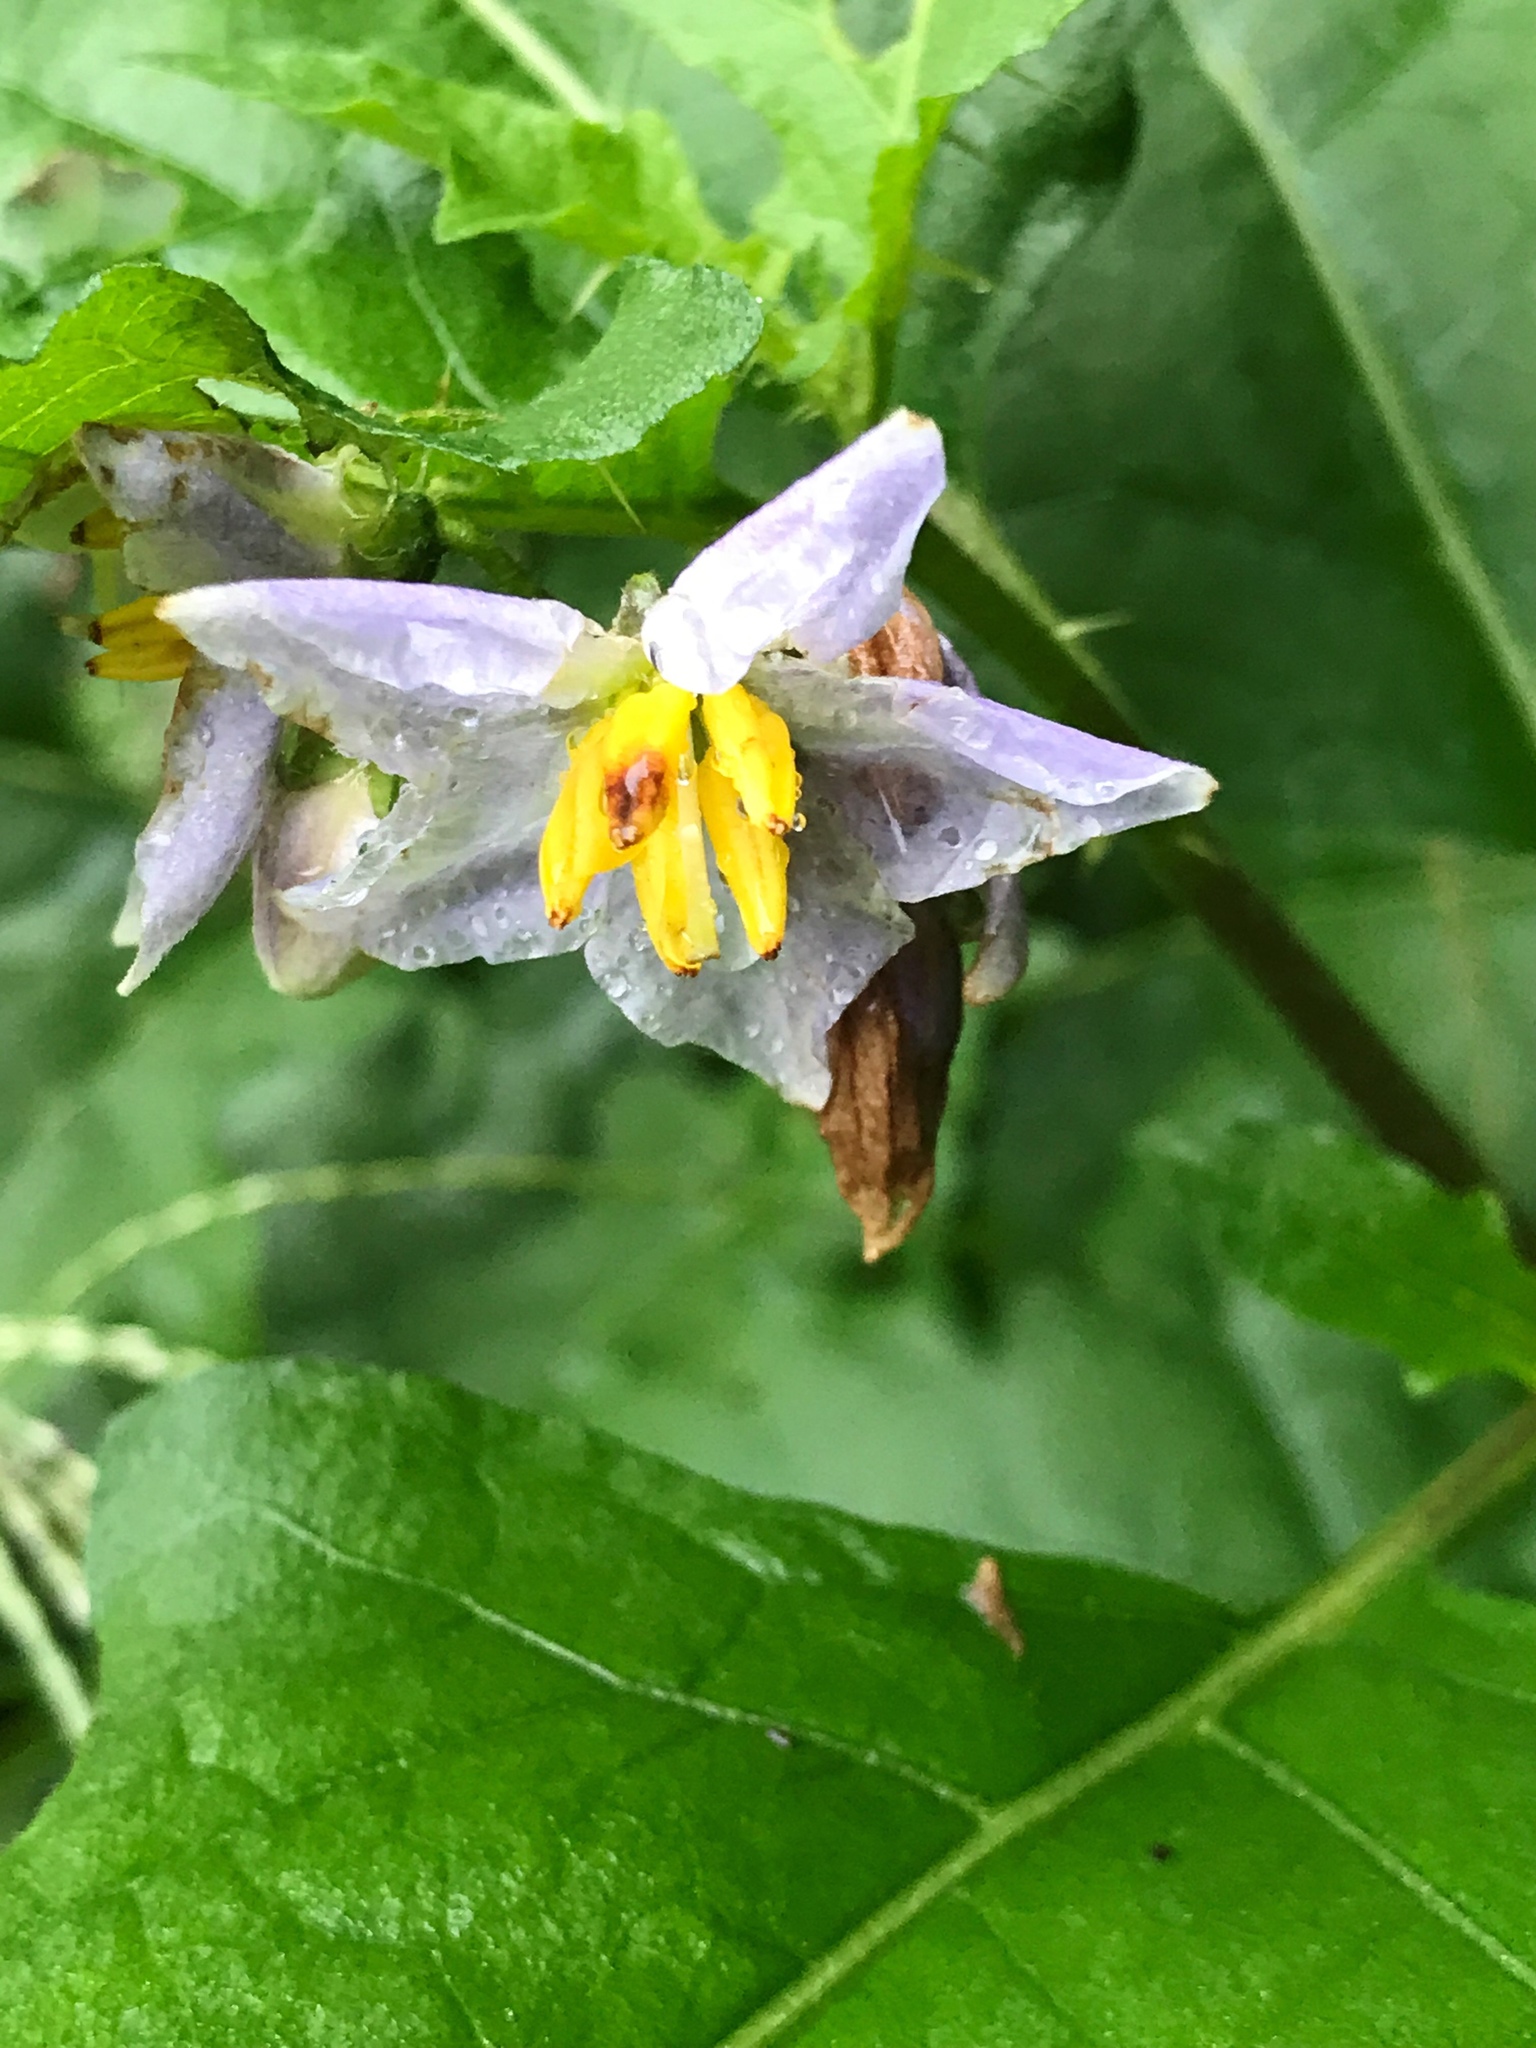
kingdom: Plantae
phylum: Tracheophyta
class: Magnoliopsida
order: Solanales
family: Solanaceae
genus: Solanum
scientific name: Solanum carolinense
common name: Horse-nettle
